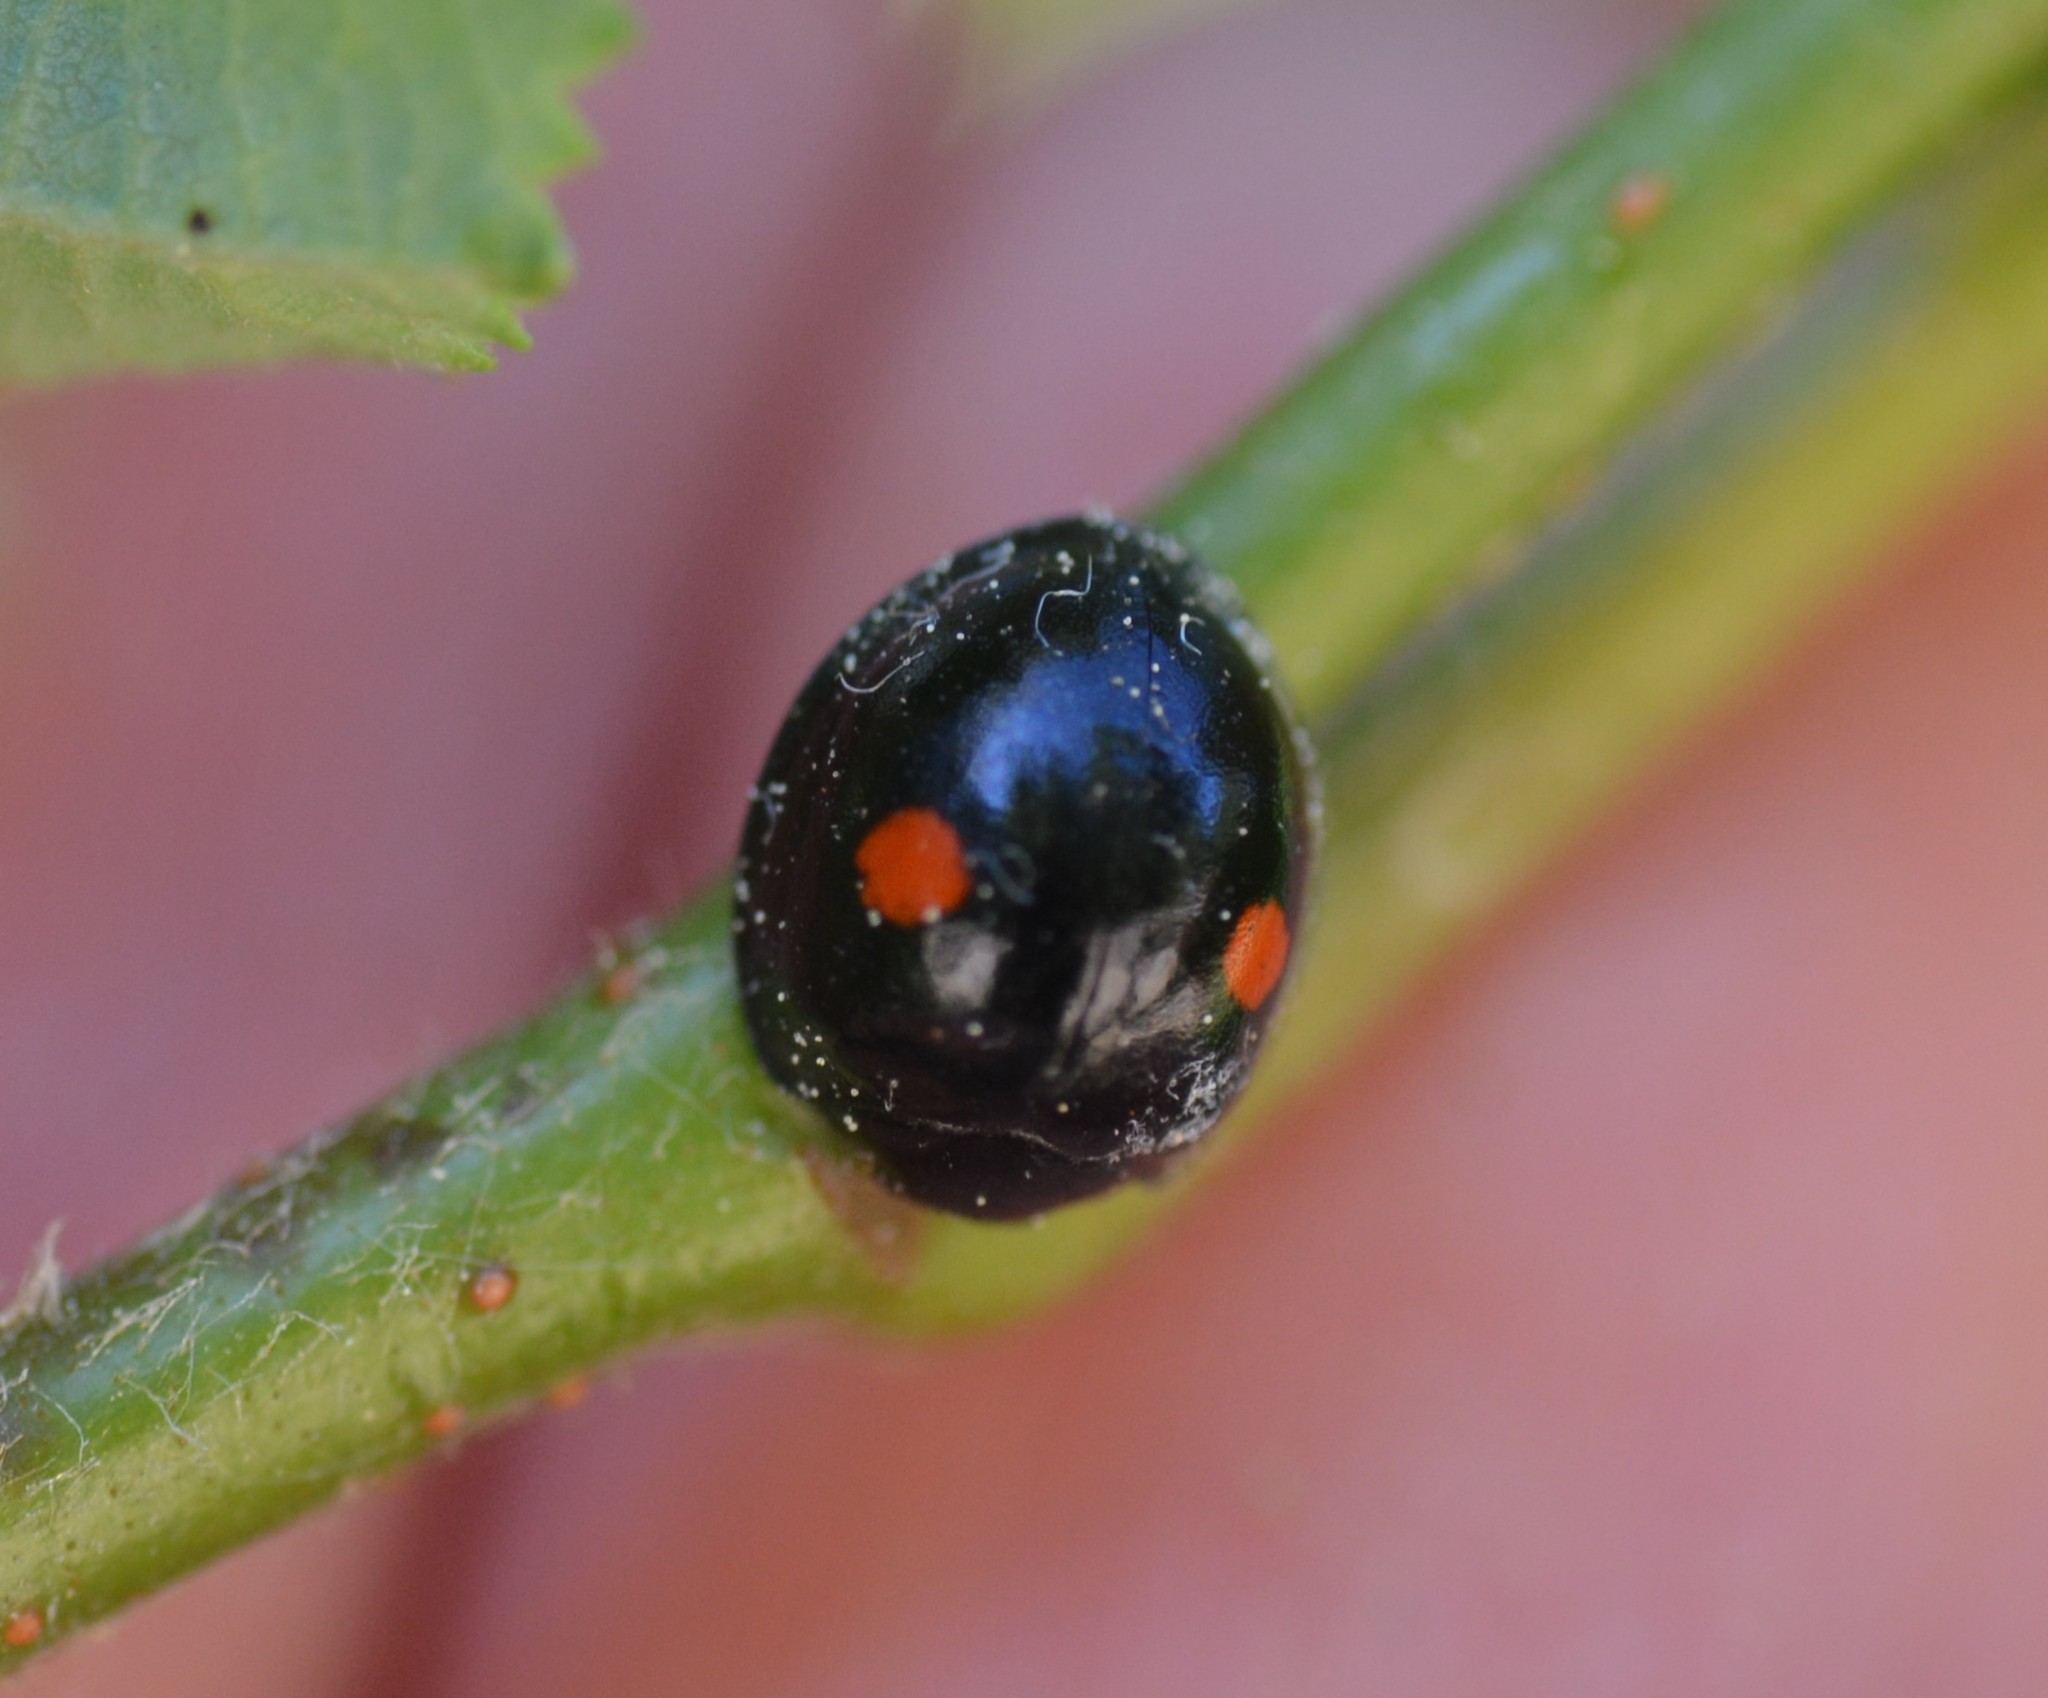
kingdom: Animalia
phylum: Arthropoda
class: Insecta
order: Coleoptera
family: Coccinellidae
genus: Chilocorus
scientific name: Chilocorus stigma
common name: Twicestabbed lady beetle
